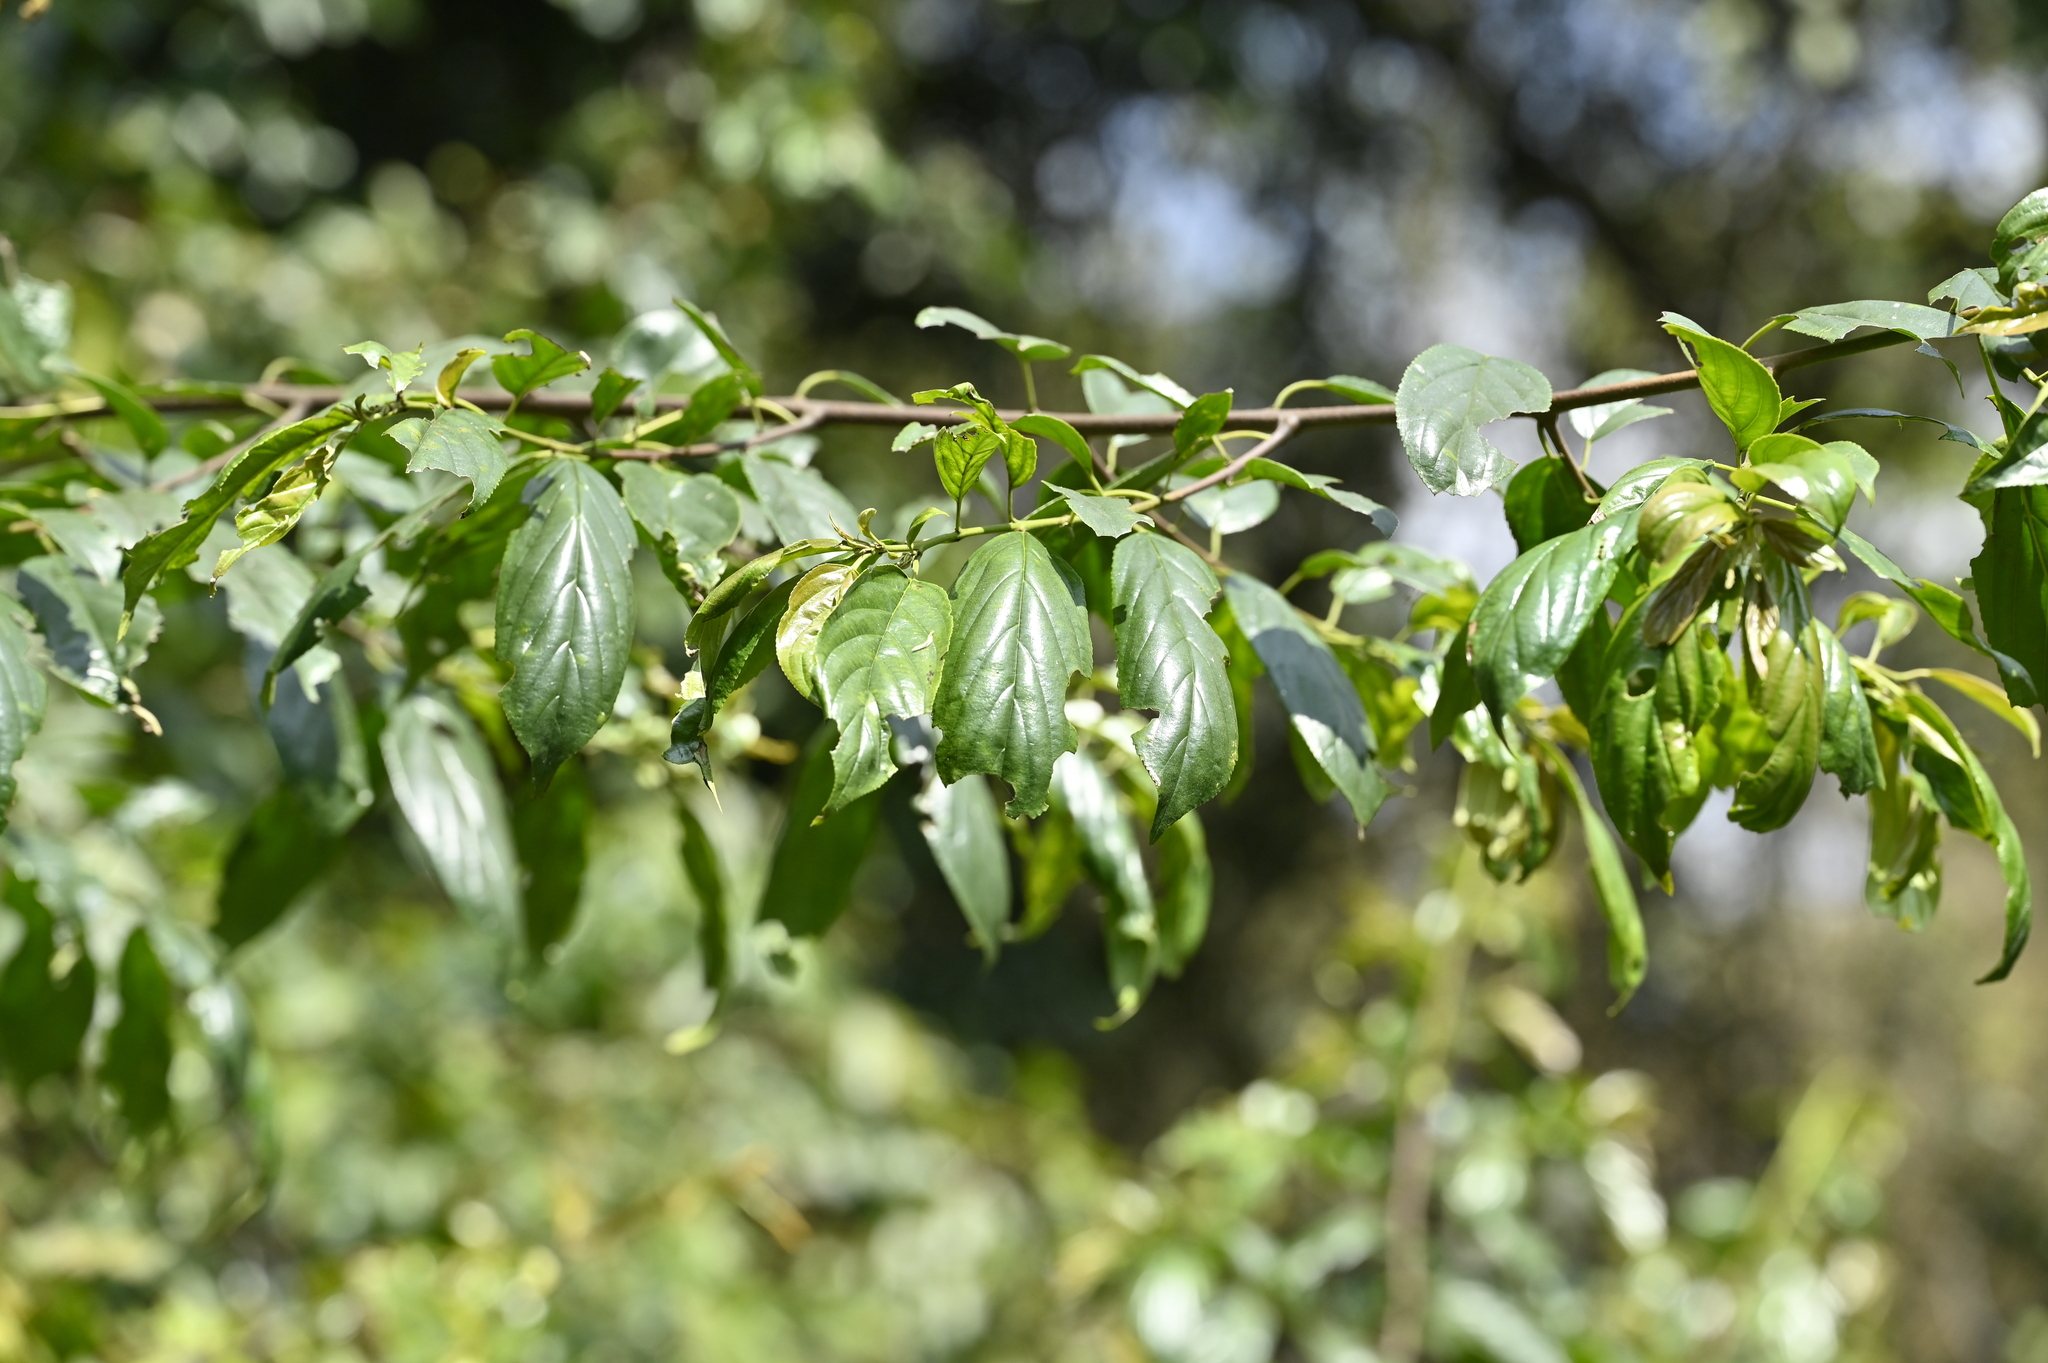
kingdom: Plantae
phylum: Tracheophyta
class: Magnoliopsida
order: Rosales
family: Rhamnaceae
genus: Rhamnus
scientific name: Rhamnus formosana
